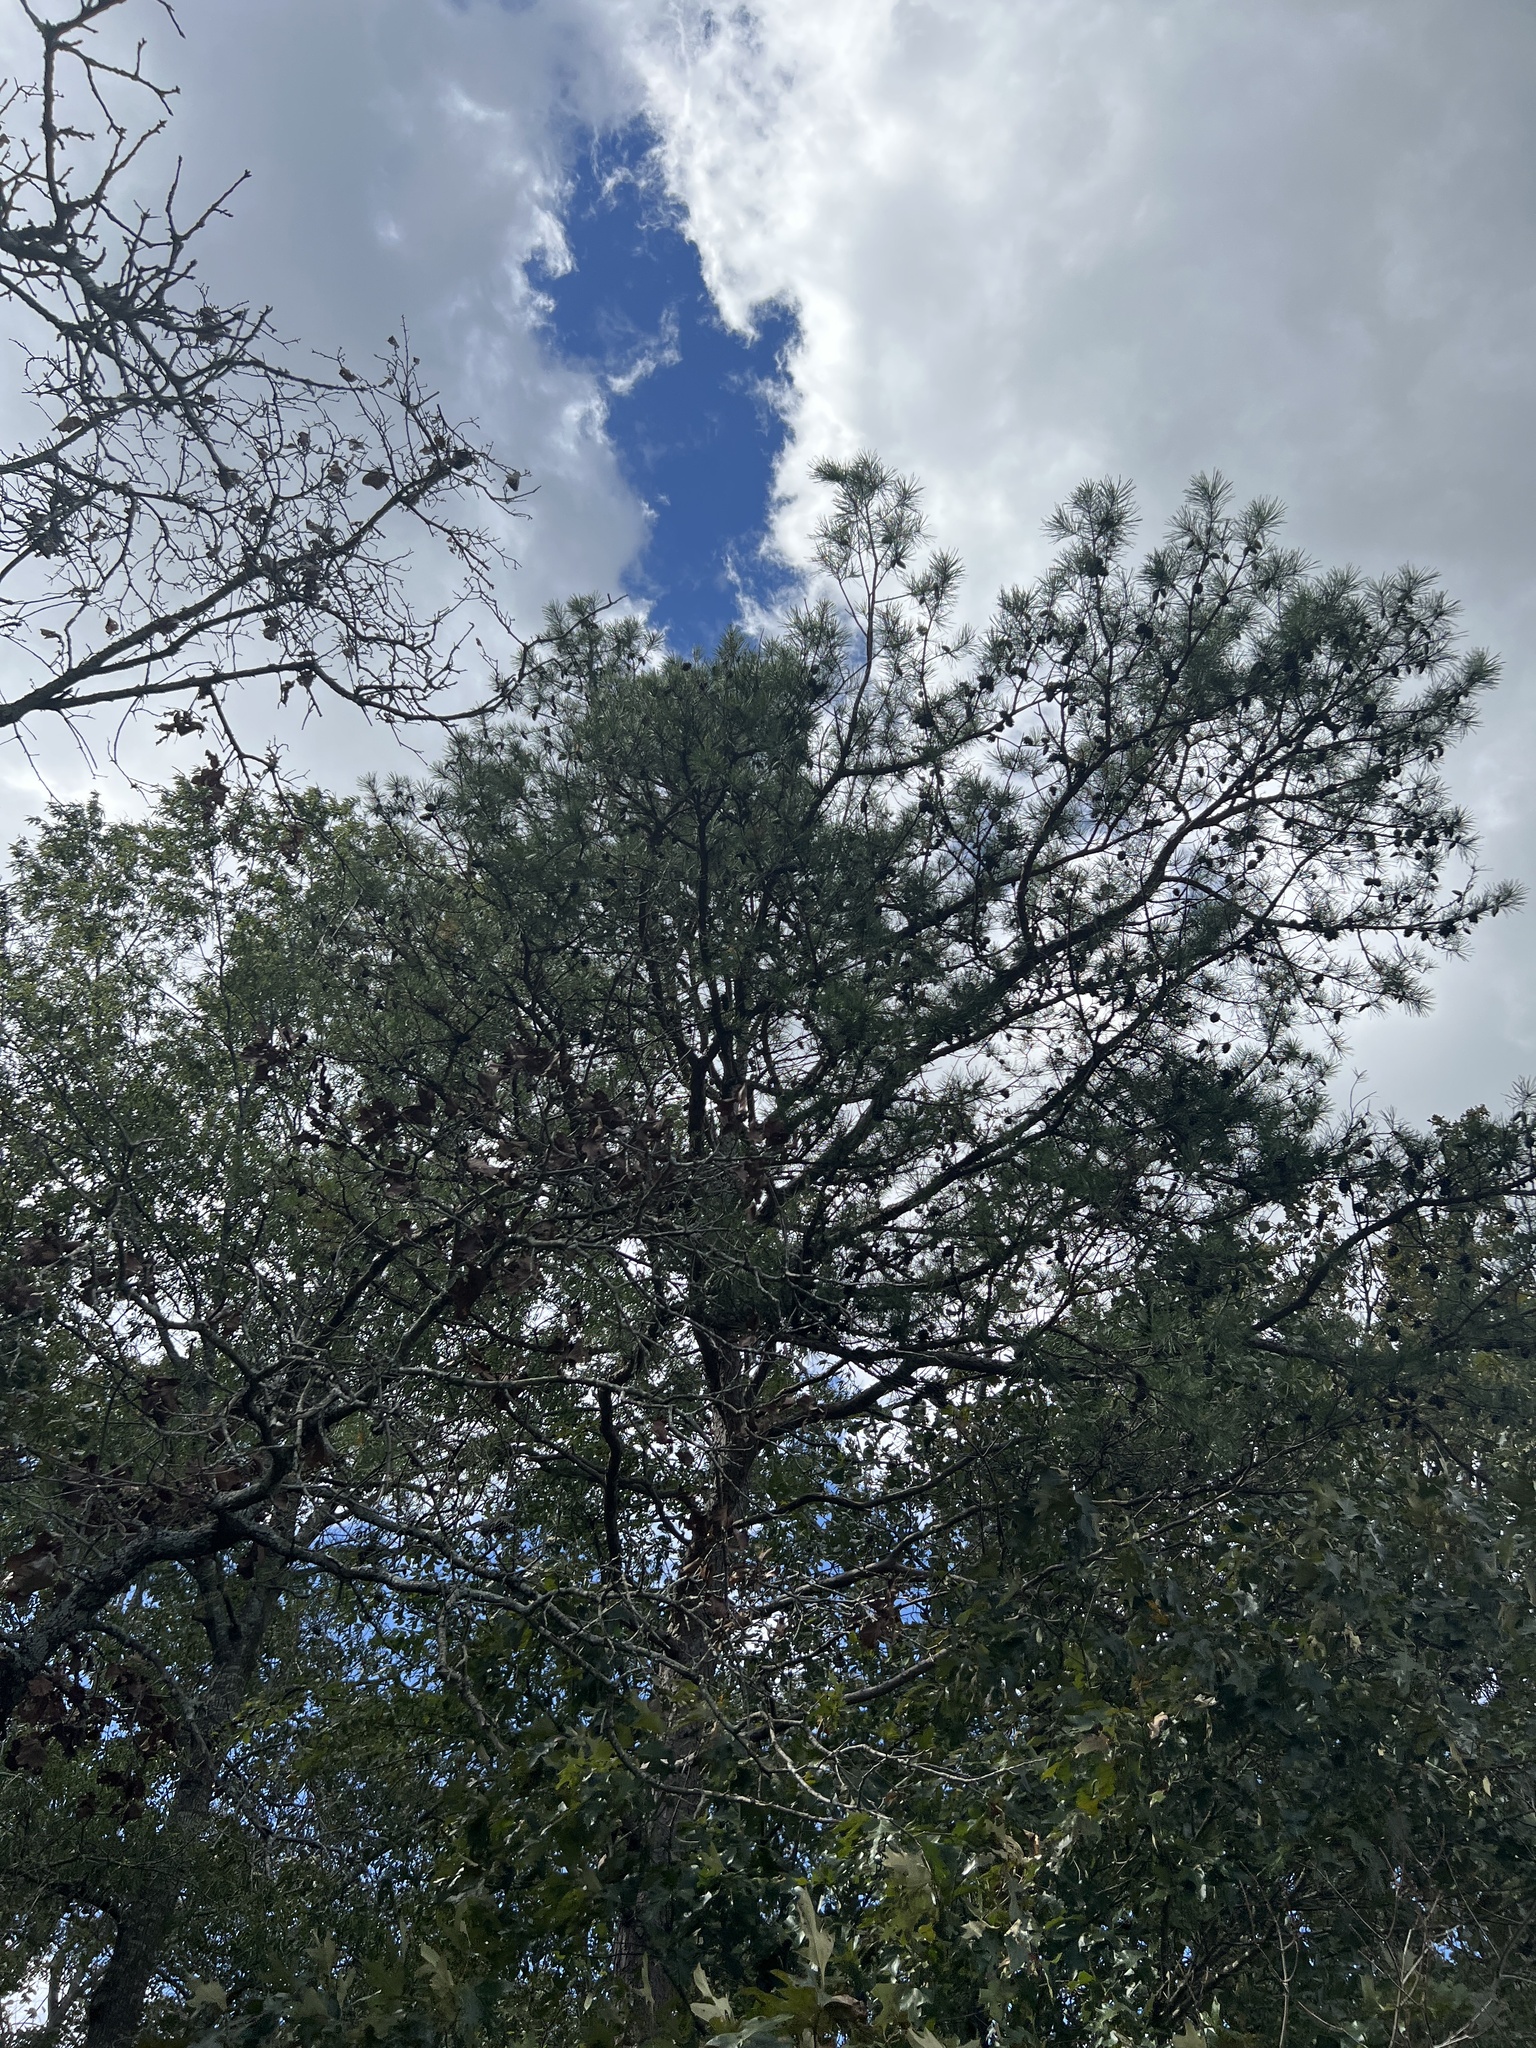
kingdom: Plantae
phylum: Tracheophyta
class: Pinopsida
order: Pinales
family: Pinaceae
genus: Pinus
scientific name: Pinus echinata
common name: Shortleaf pine
